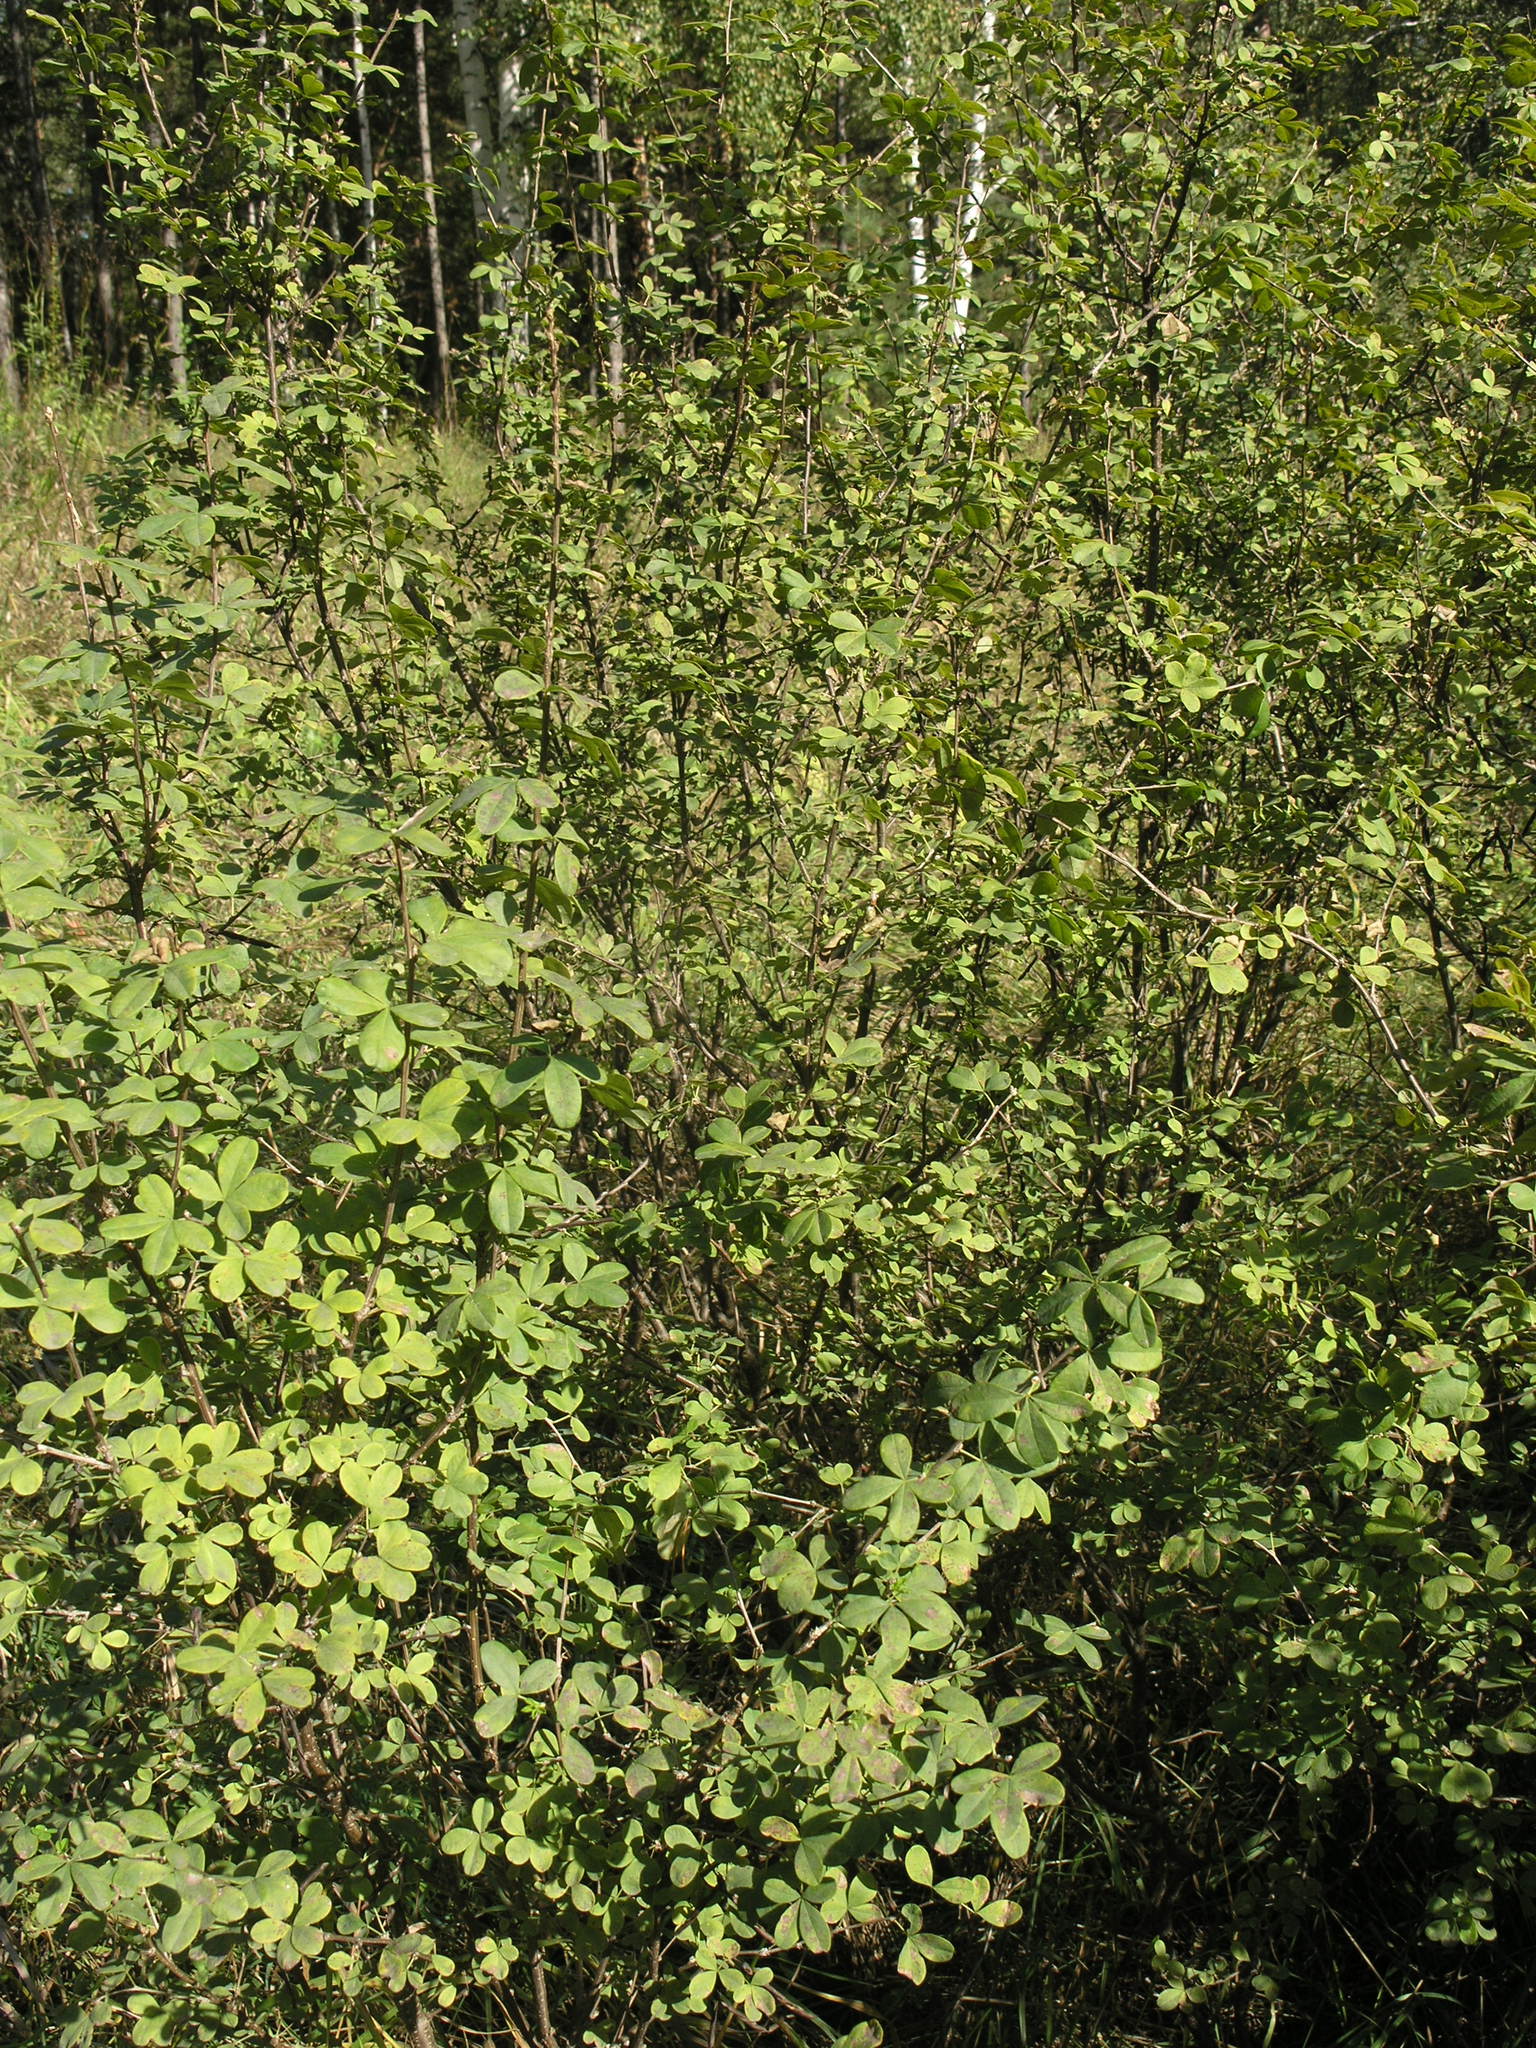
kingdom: Plantae
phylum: Tracheophyta
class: Magnoliopsida
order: Fabales
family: Fabaceae
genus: Caragana
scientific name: Caragana frutex
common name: Russian peashrub
